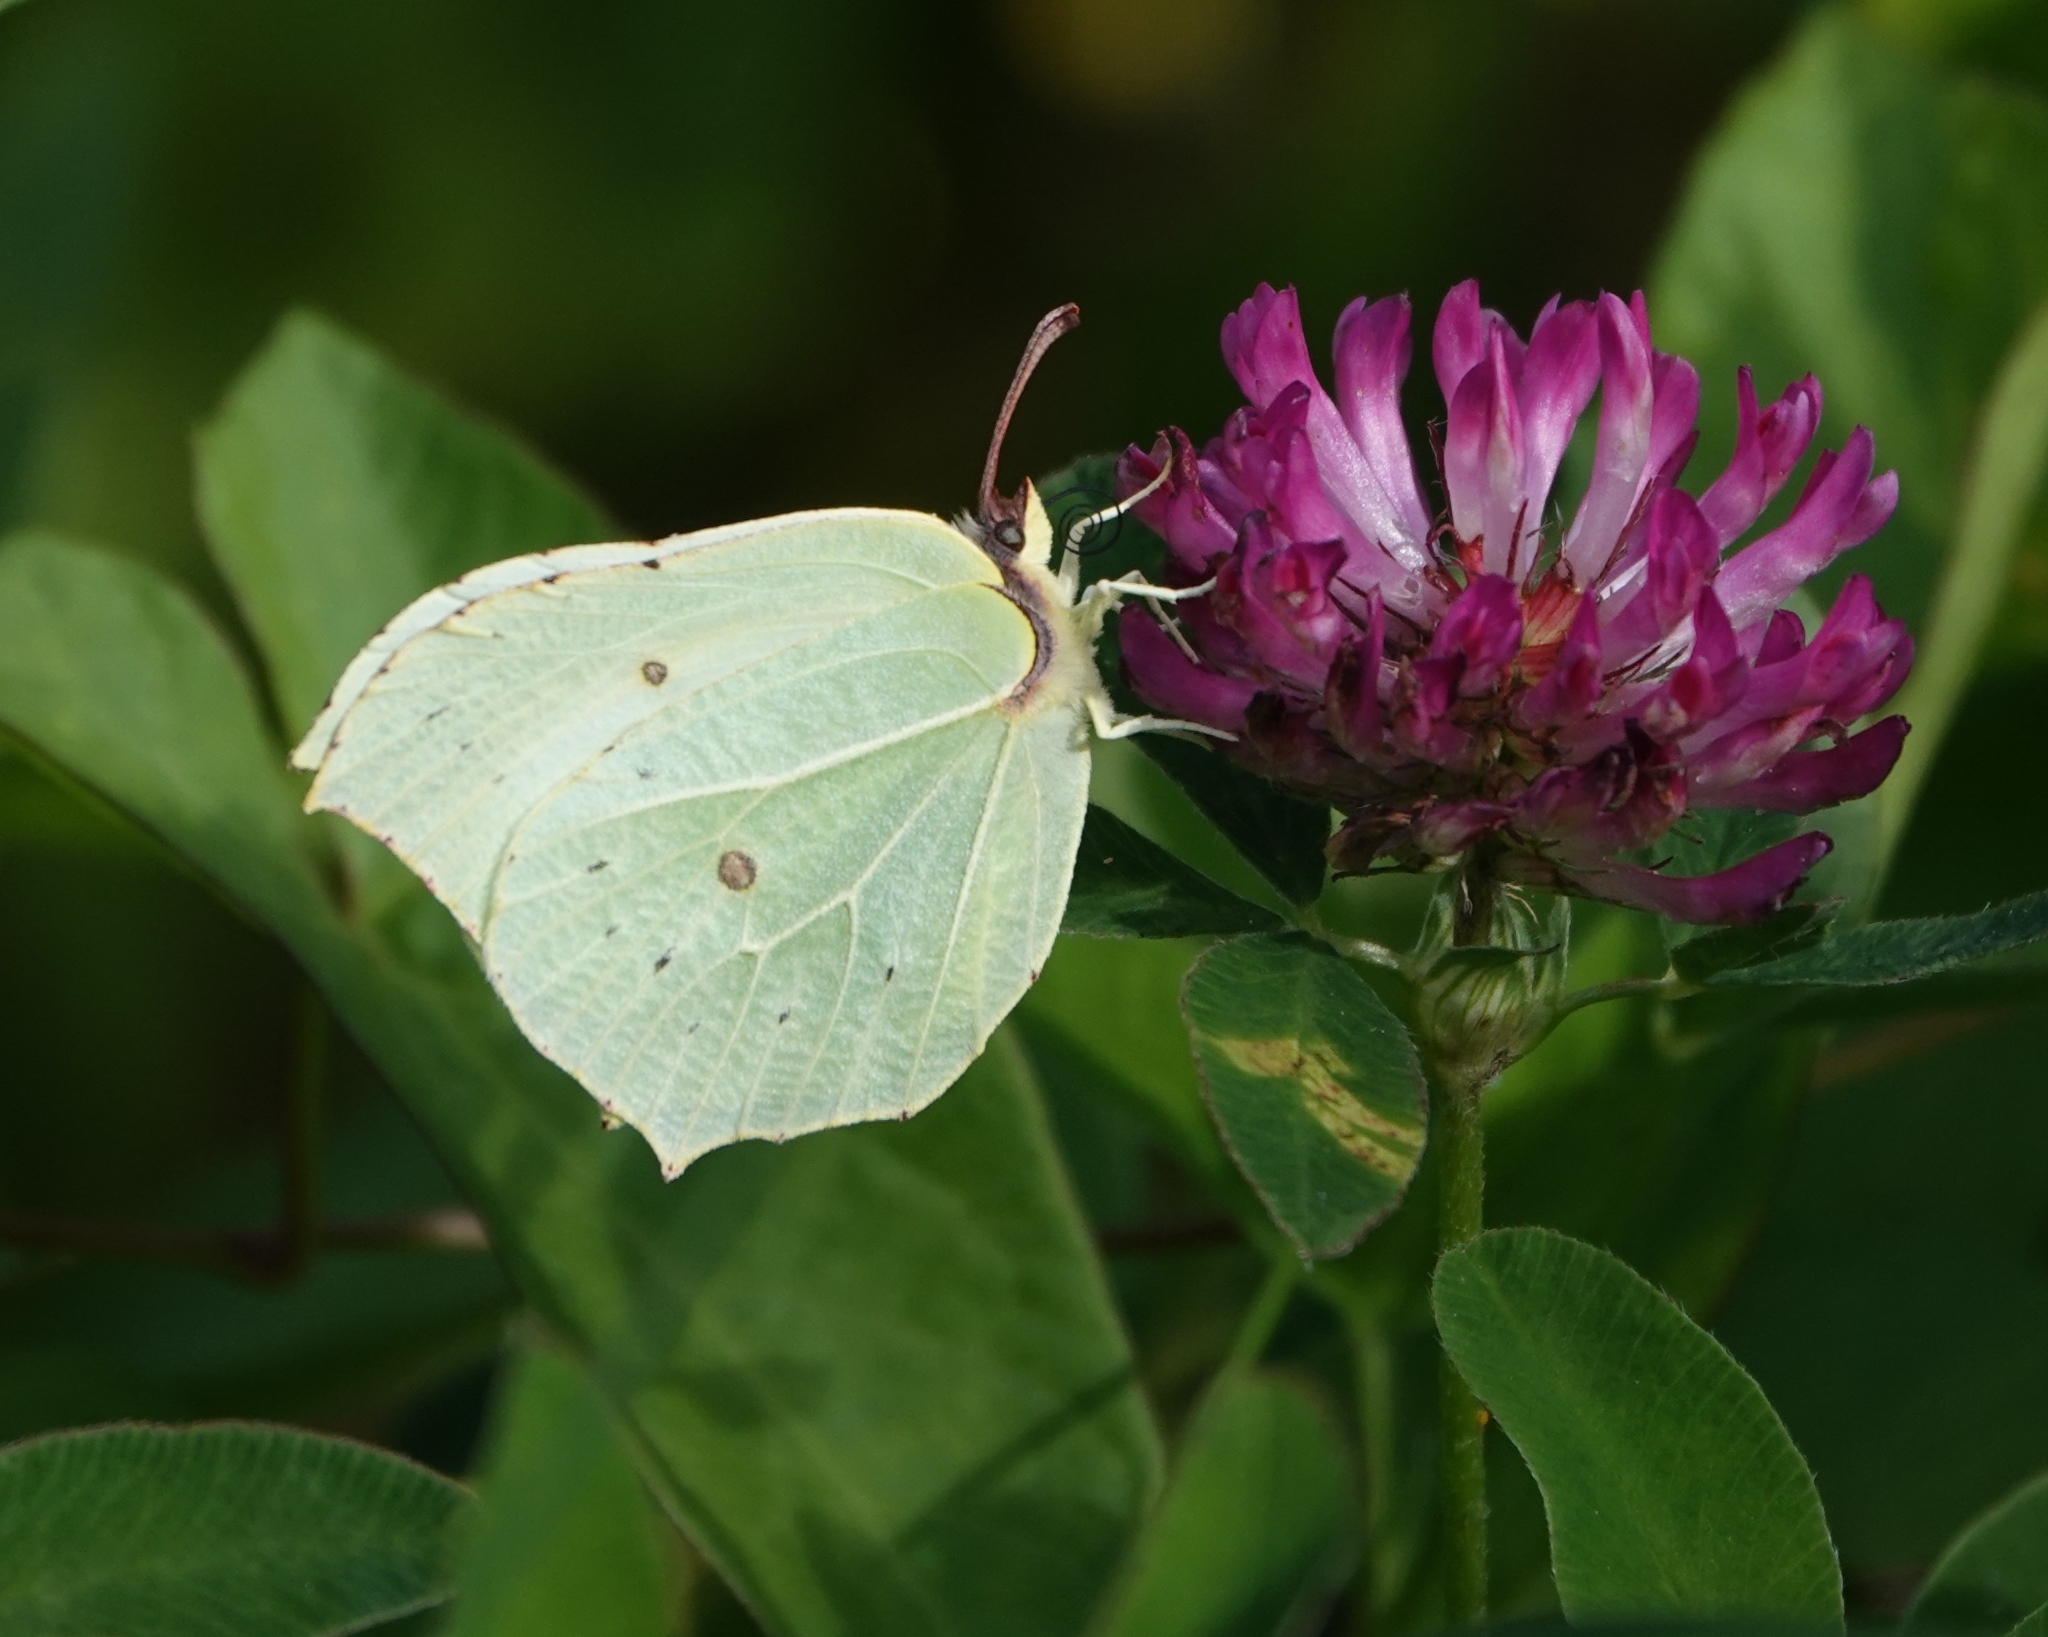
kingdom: Animalia
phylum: Arthropoda
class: Insecta
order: Lepidoptera
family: Pieridae
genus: Gonepteryx
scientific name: Gonepteryx rhamni
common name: Brimstone
